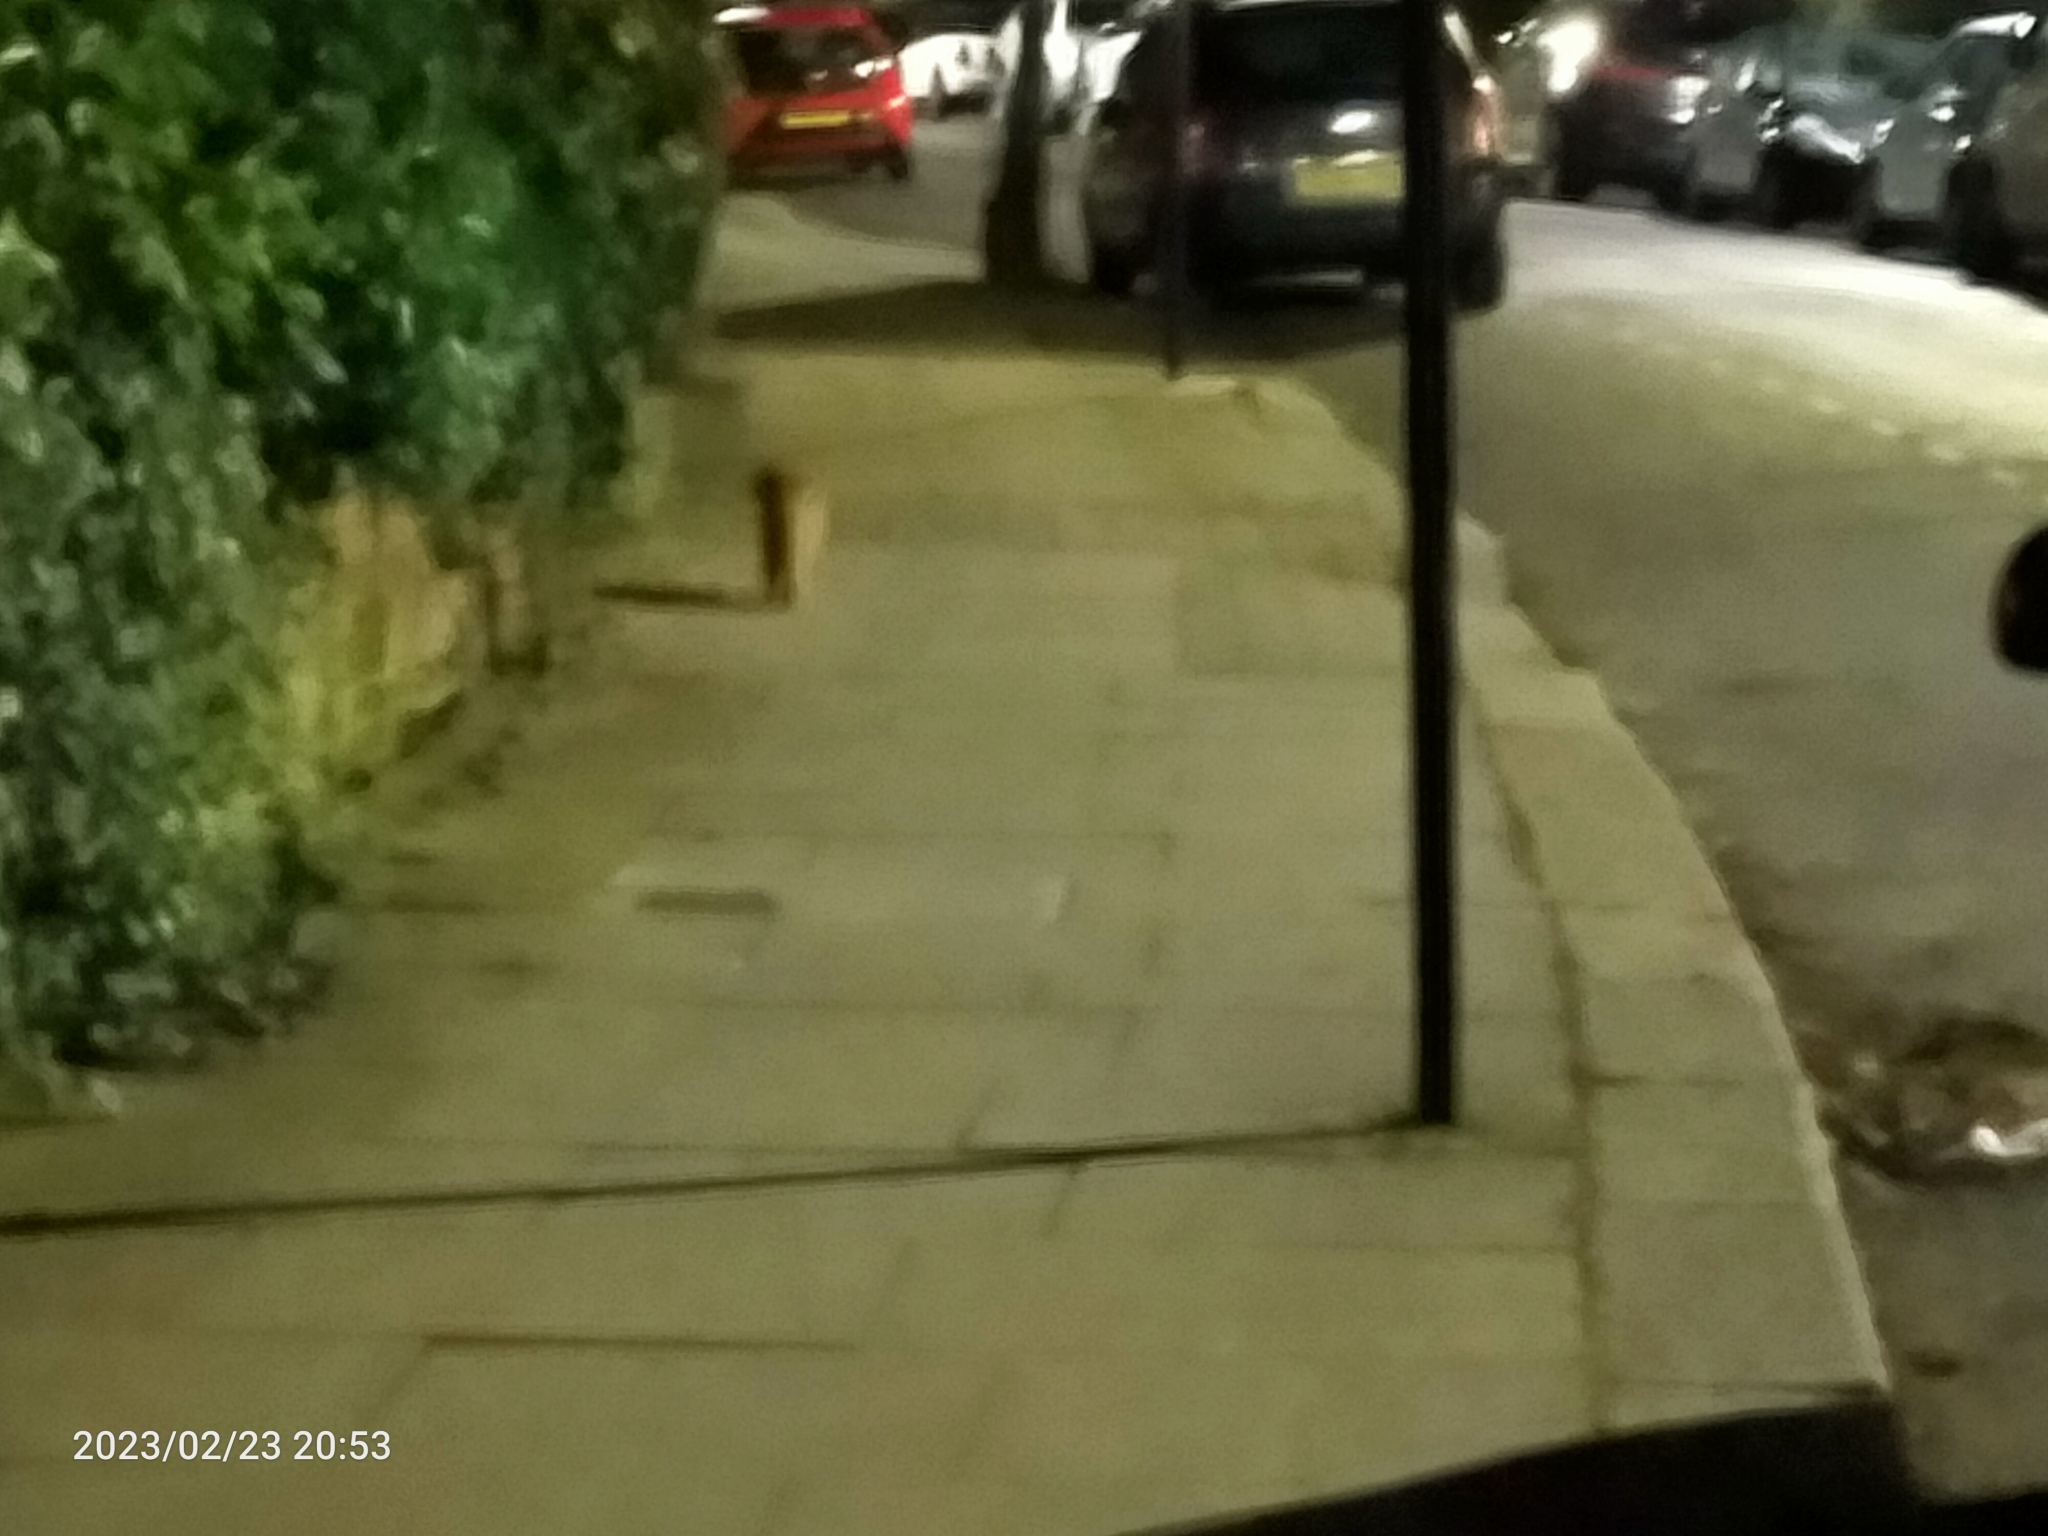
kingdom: Animalia
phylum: Chordata
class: Mammalia
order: Carnivora
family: Felidae
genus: Felis
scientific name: Felis catus
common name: Domestic cat
